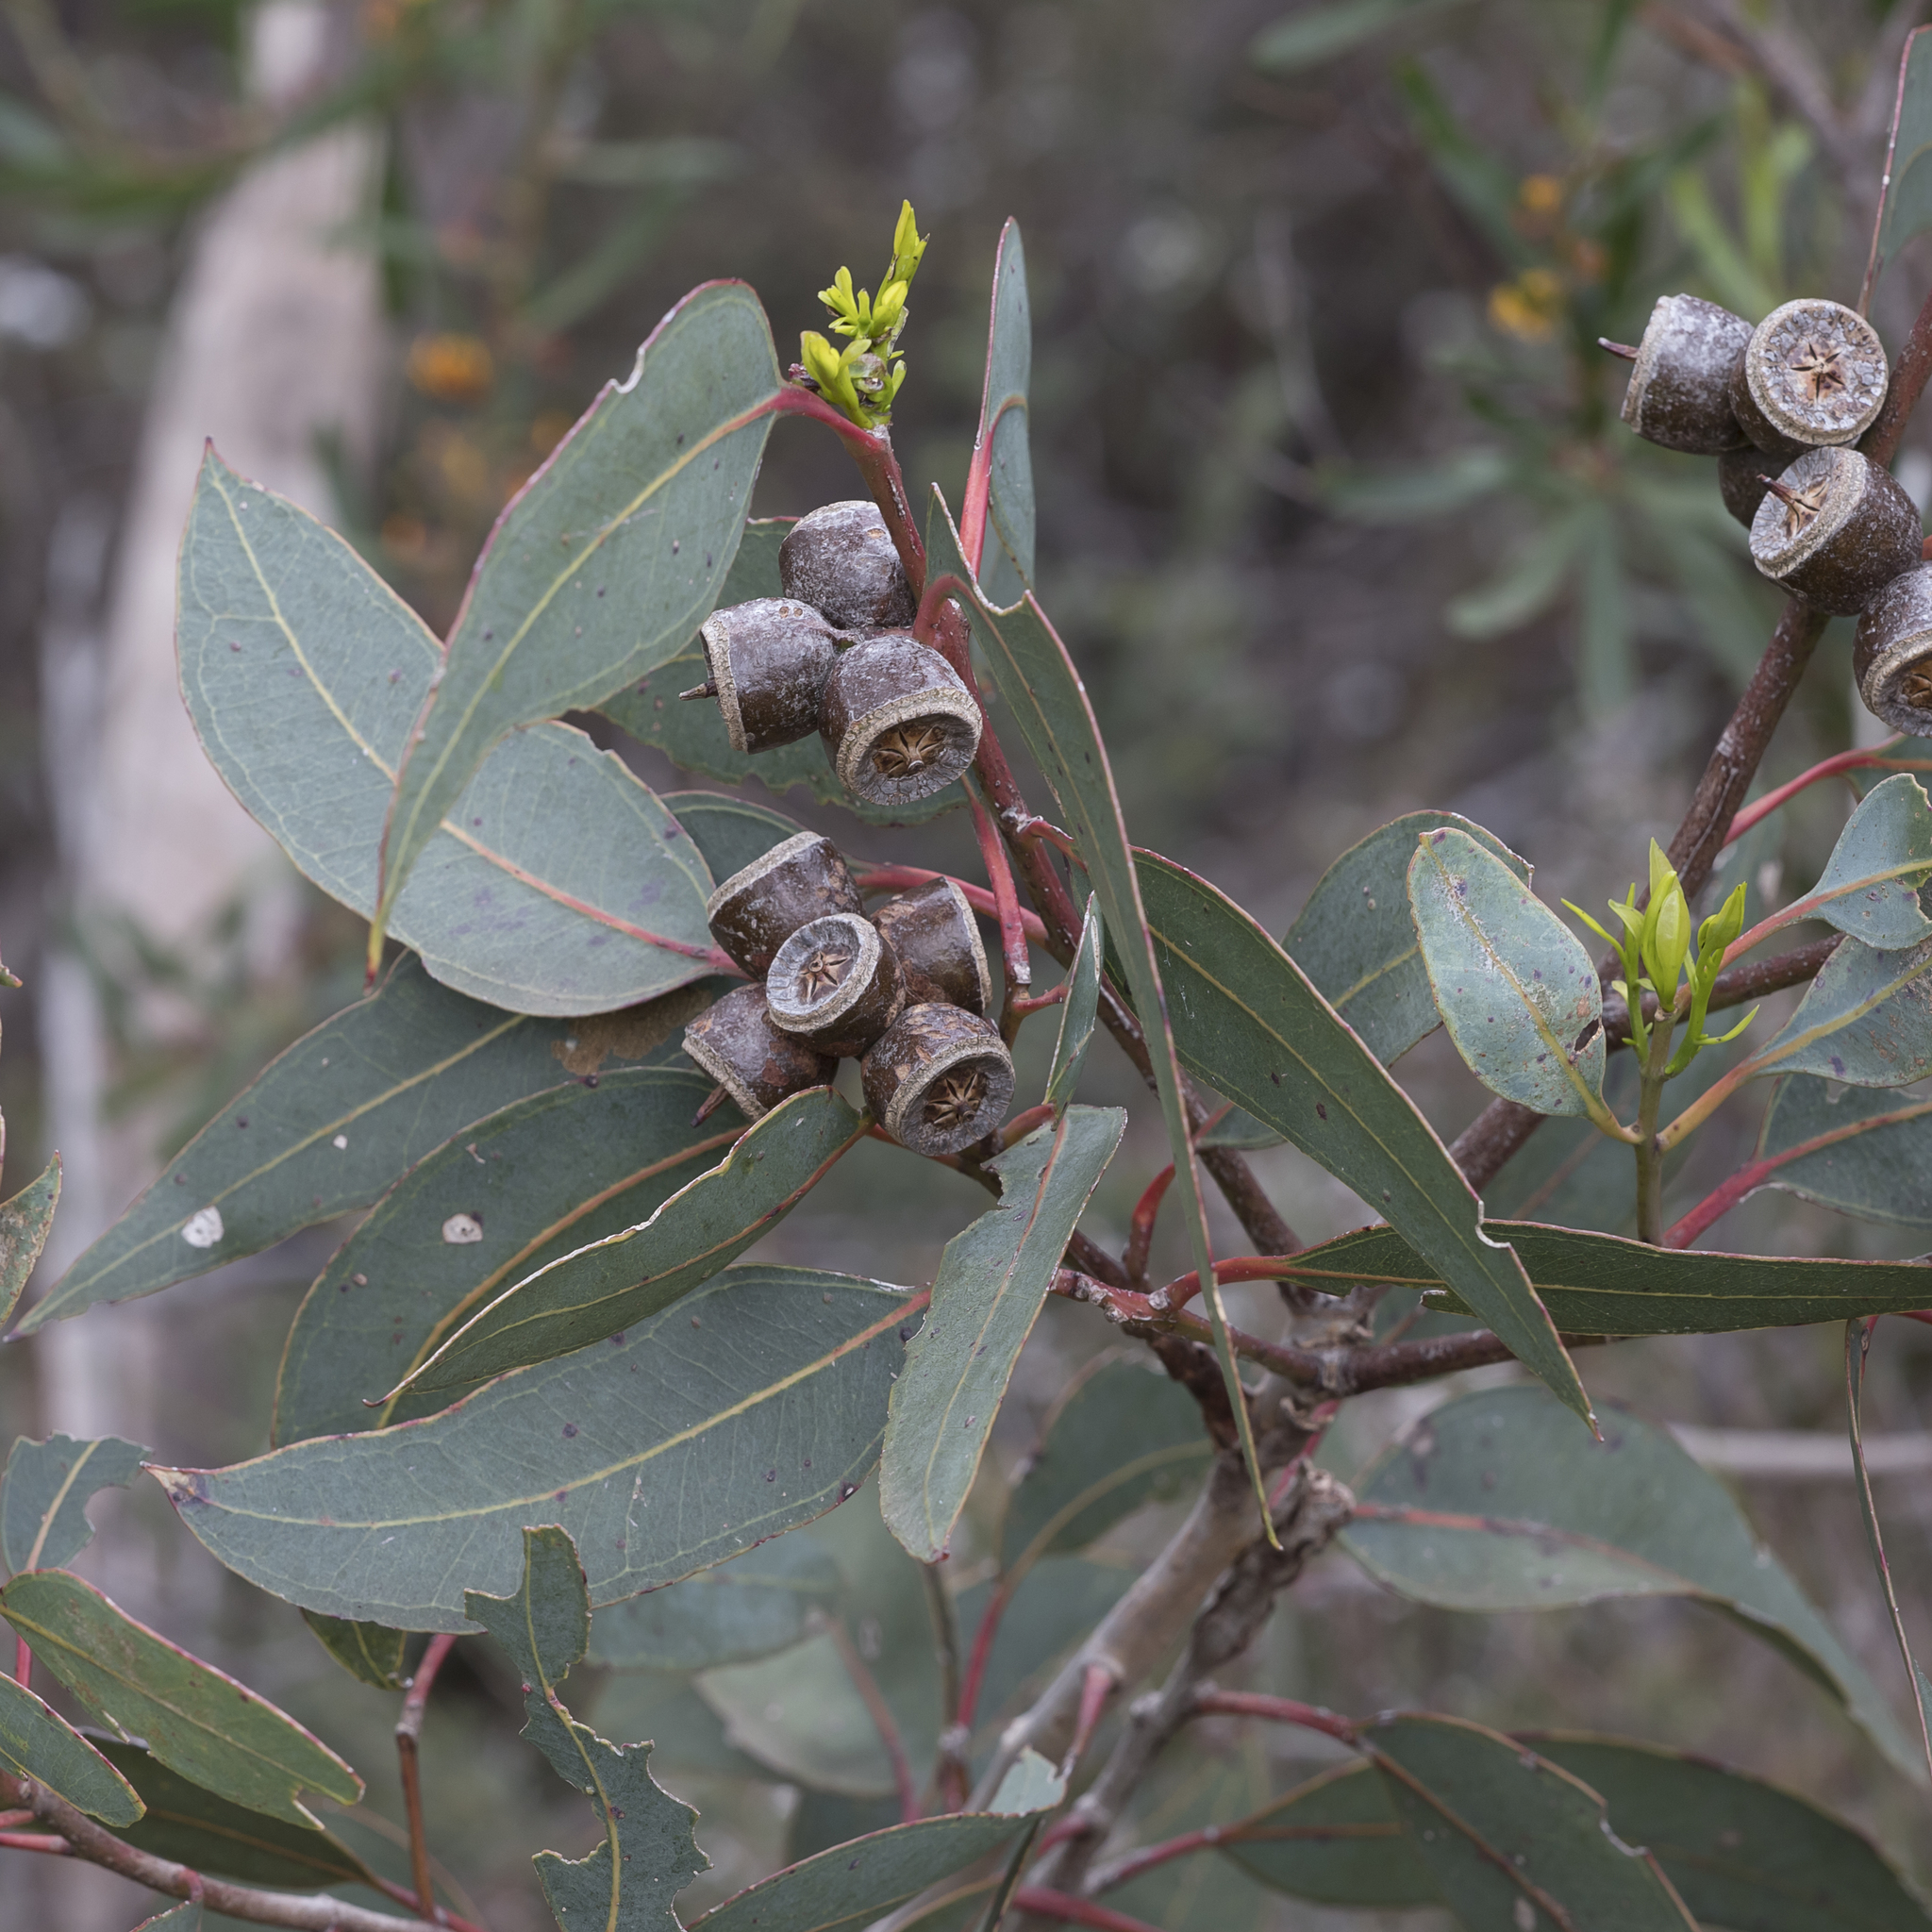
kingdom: Plantae
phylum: Tracheophyta
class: Magnoliopsida
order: Myrtales
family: Myrtaceae
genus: Eucalyptus
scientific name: Eucalyptus cosmophylla
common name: Bog-gum
